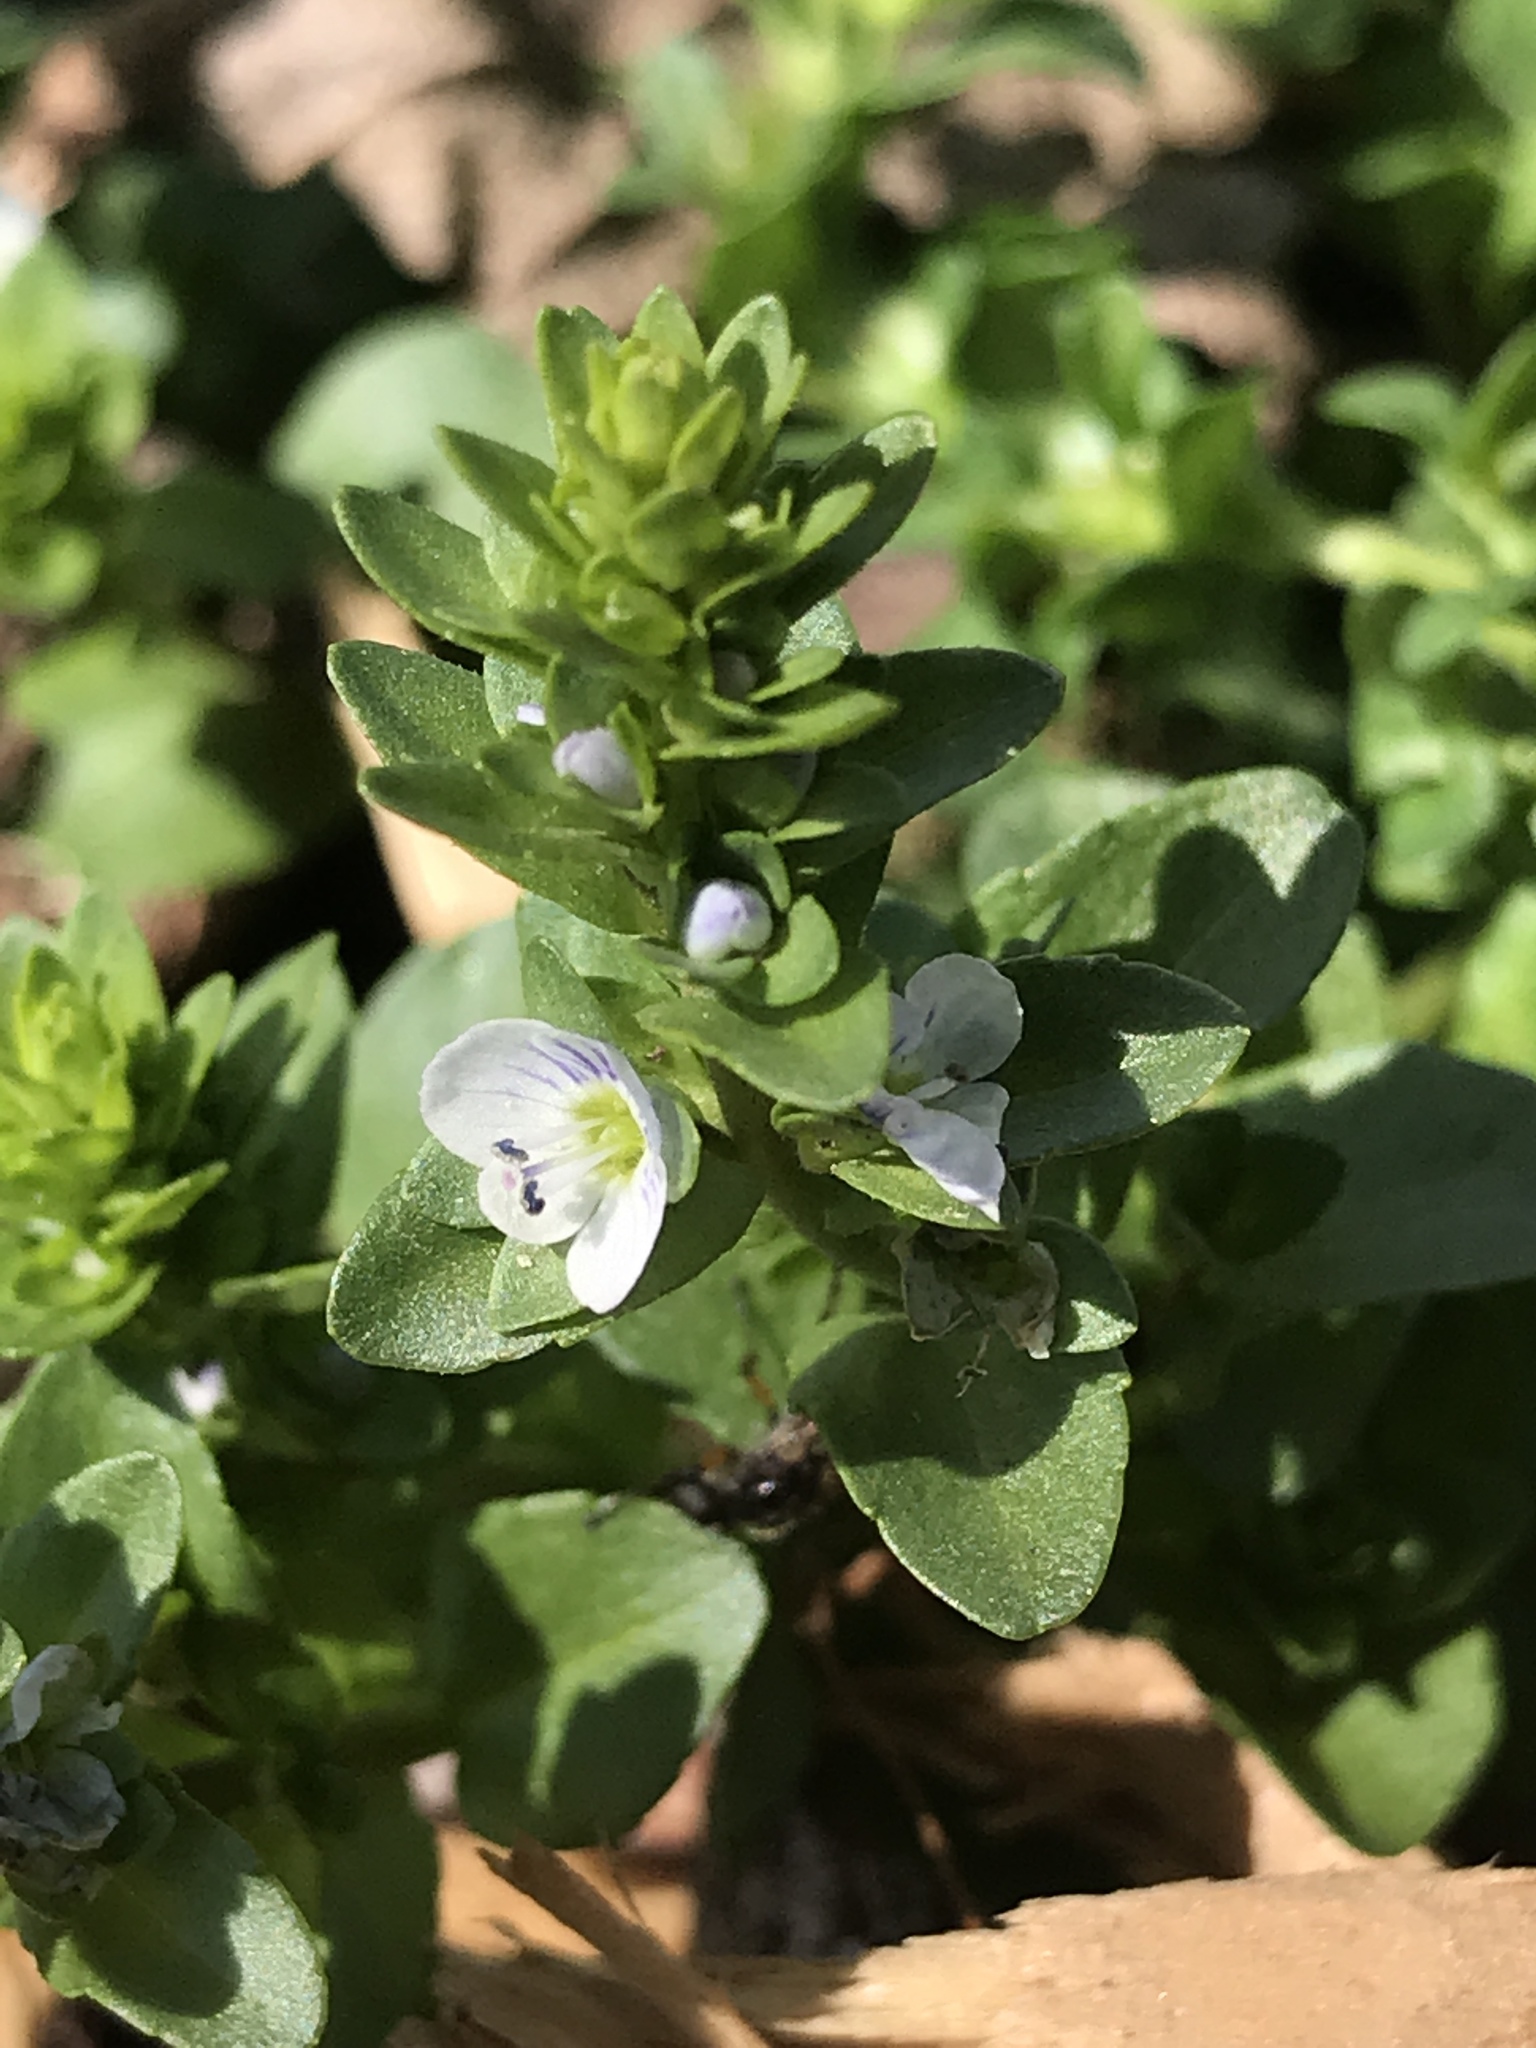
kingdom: Plantae
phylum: Tracheophyta
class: Magnoliopsida
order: Lamiales
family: Plantaginaceae
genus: Veronica
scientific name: Veronica serpyllifolia
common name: Thyme-leaved speedwell
